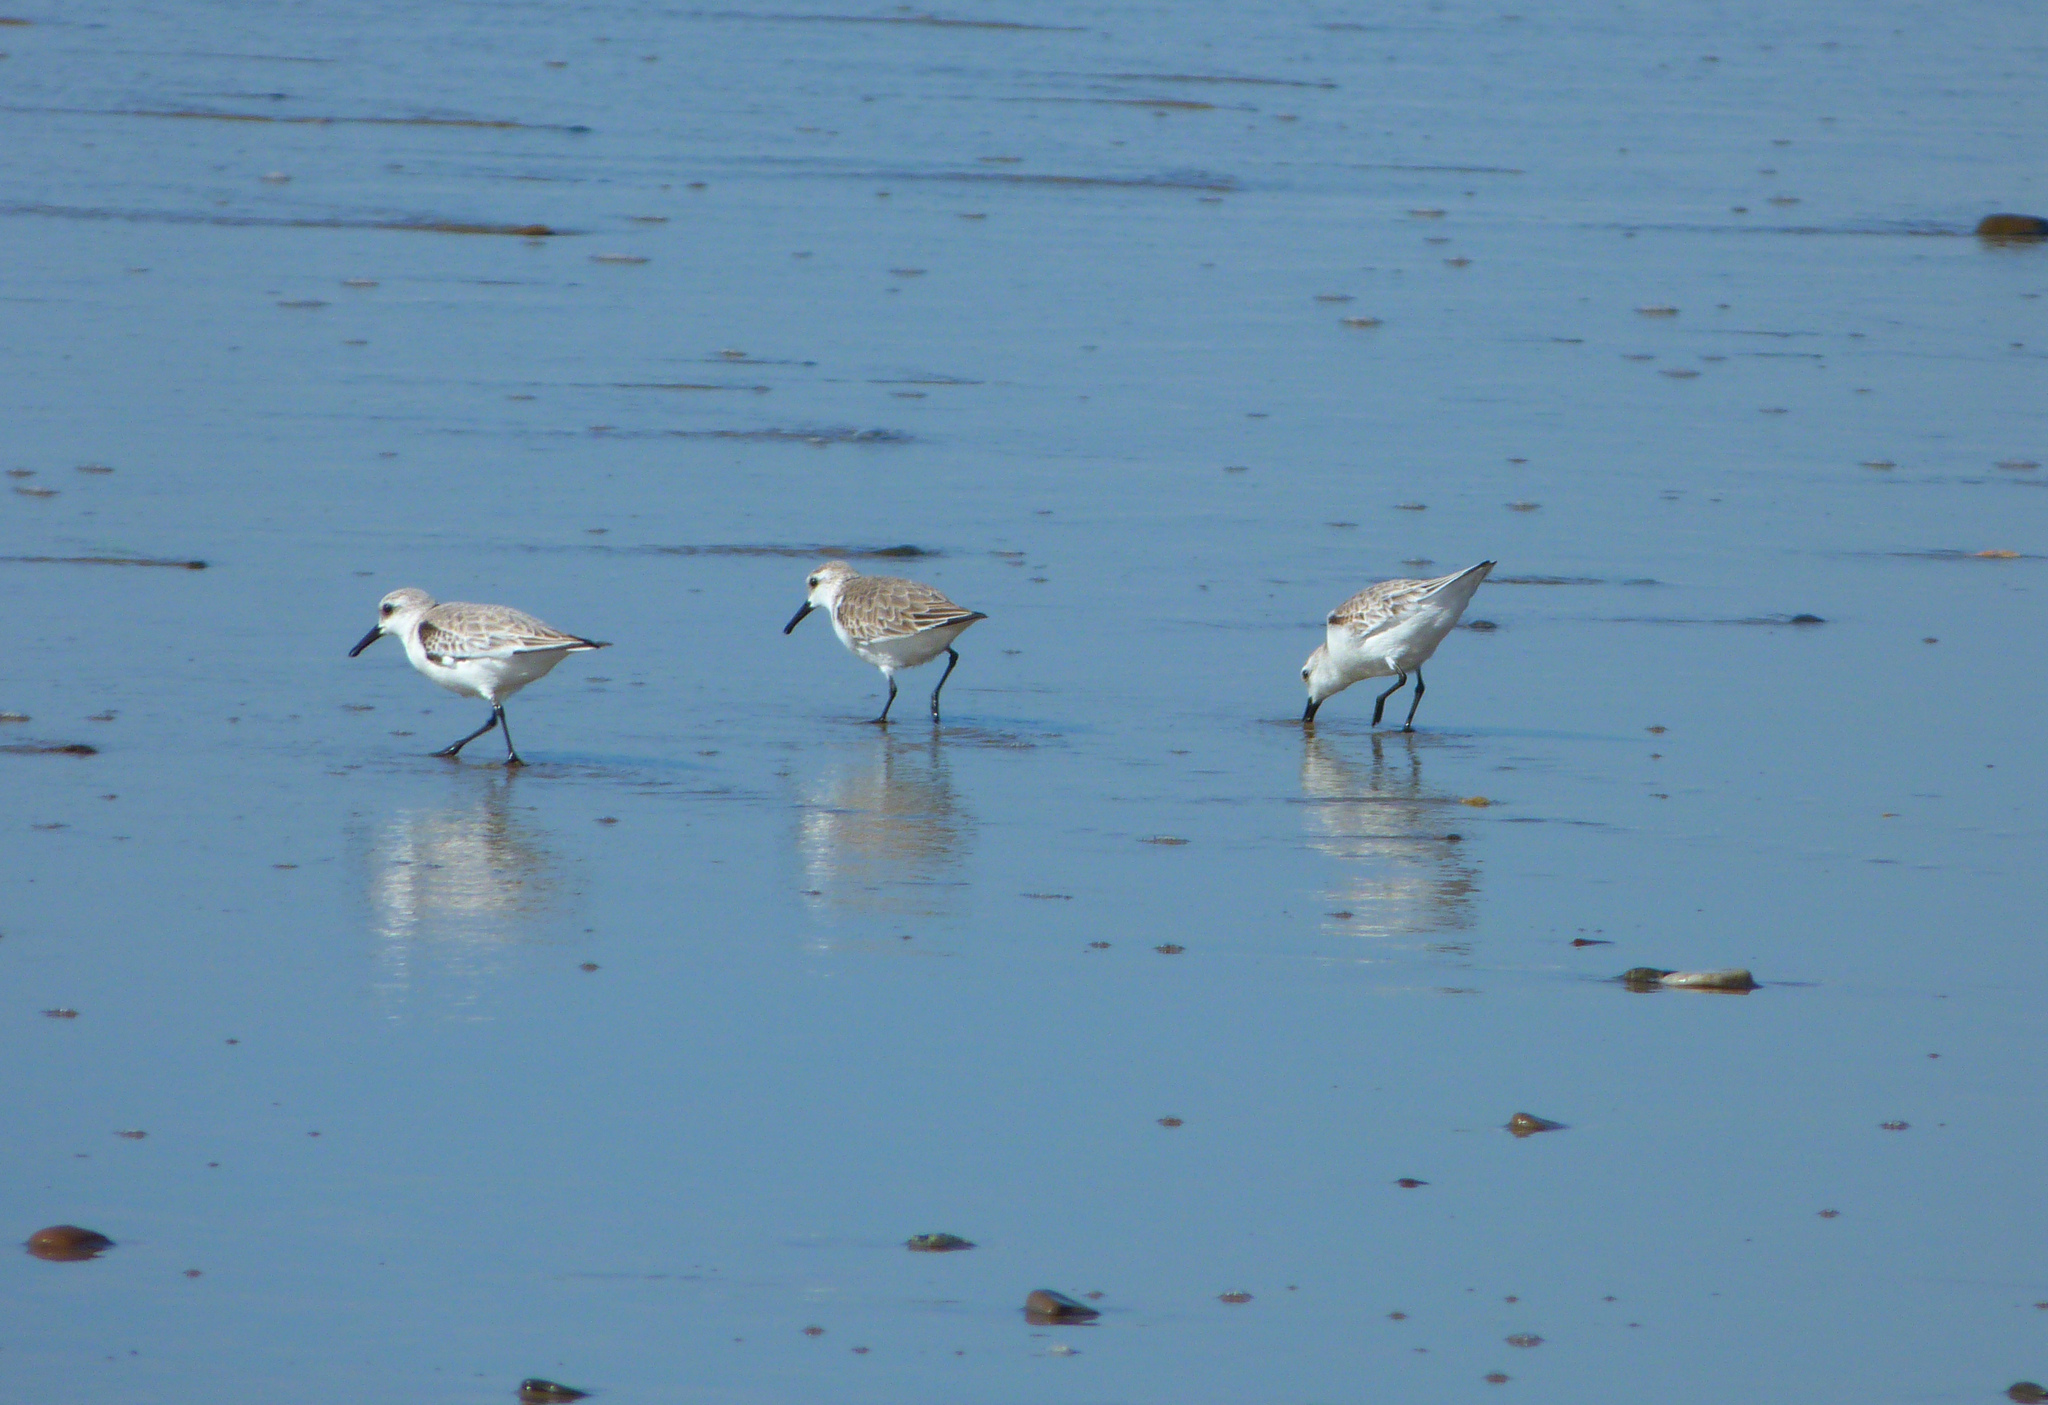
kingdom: Animalia
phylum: Chordata
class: Aves
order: Charadriiformes
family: Scolopacidae
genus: Calidris
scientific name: Calidris alba
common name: Sanderling
